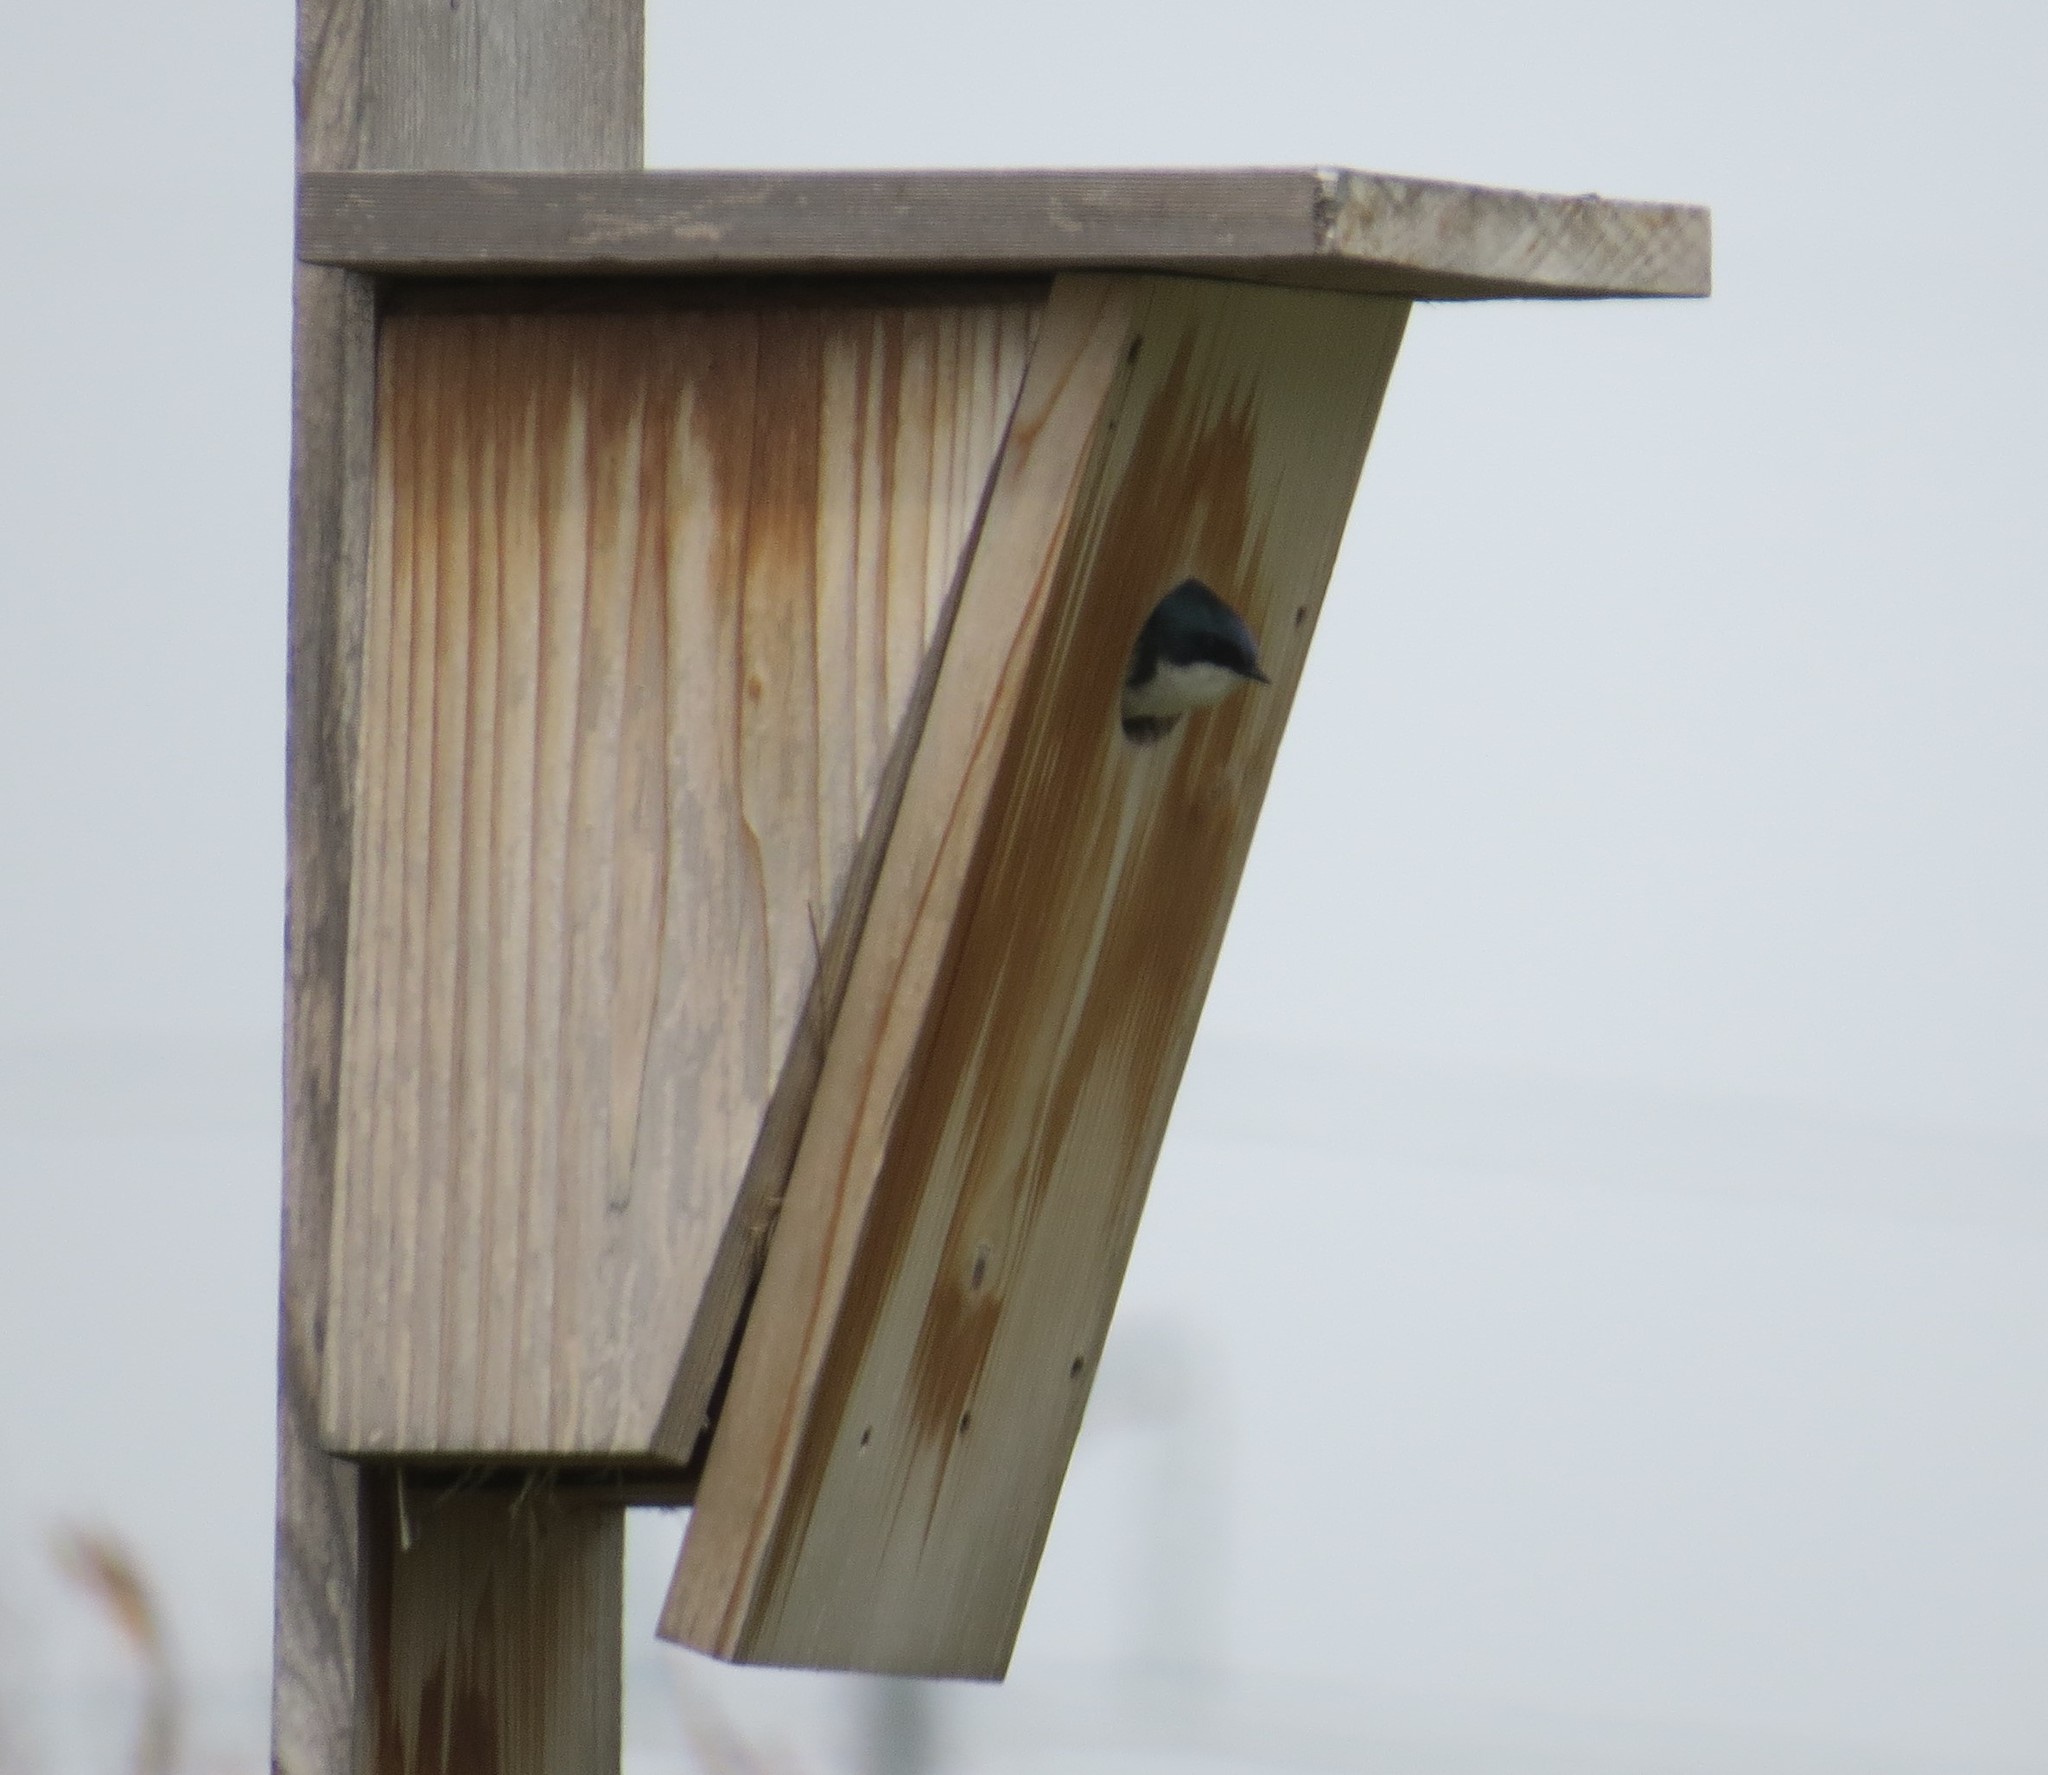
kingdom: Animalia
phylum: Chordata
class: Aves
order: Passeriformes
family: Hirundinidae
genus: Tachycineta
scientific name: Tachycineta bicolor
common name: Tree swallow
